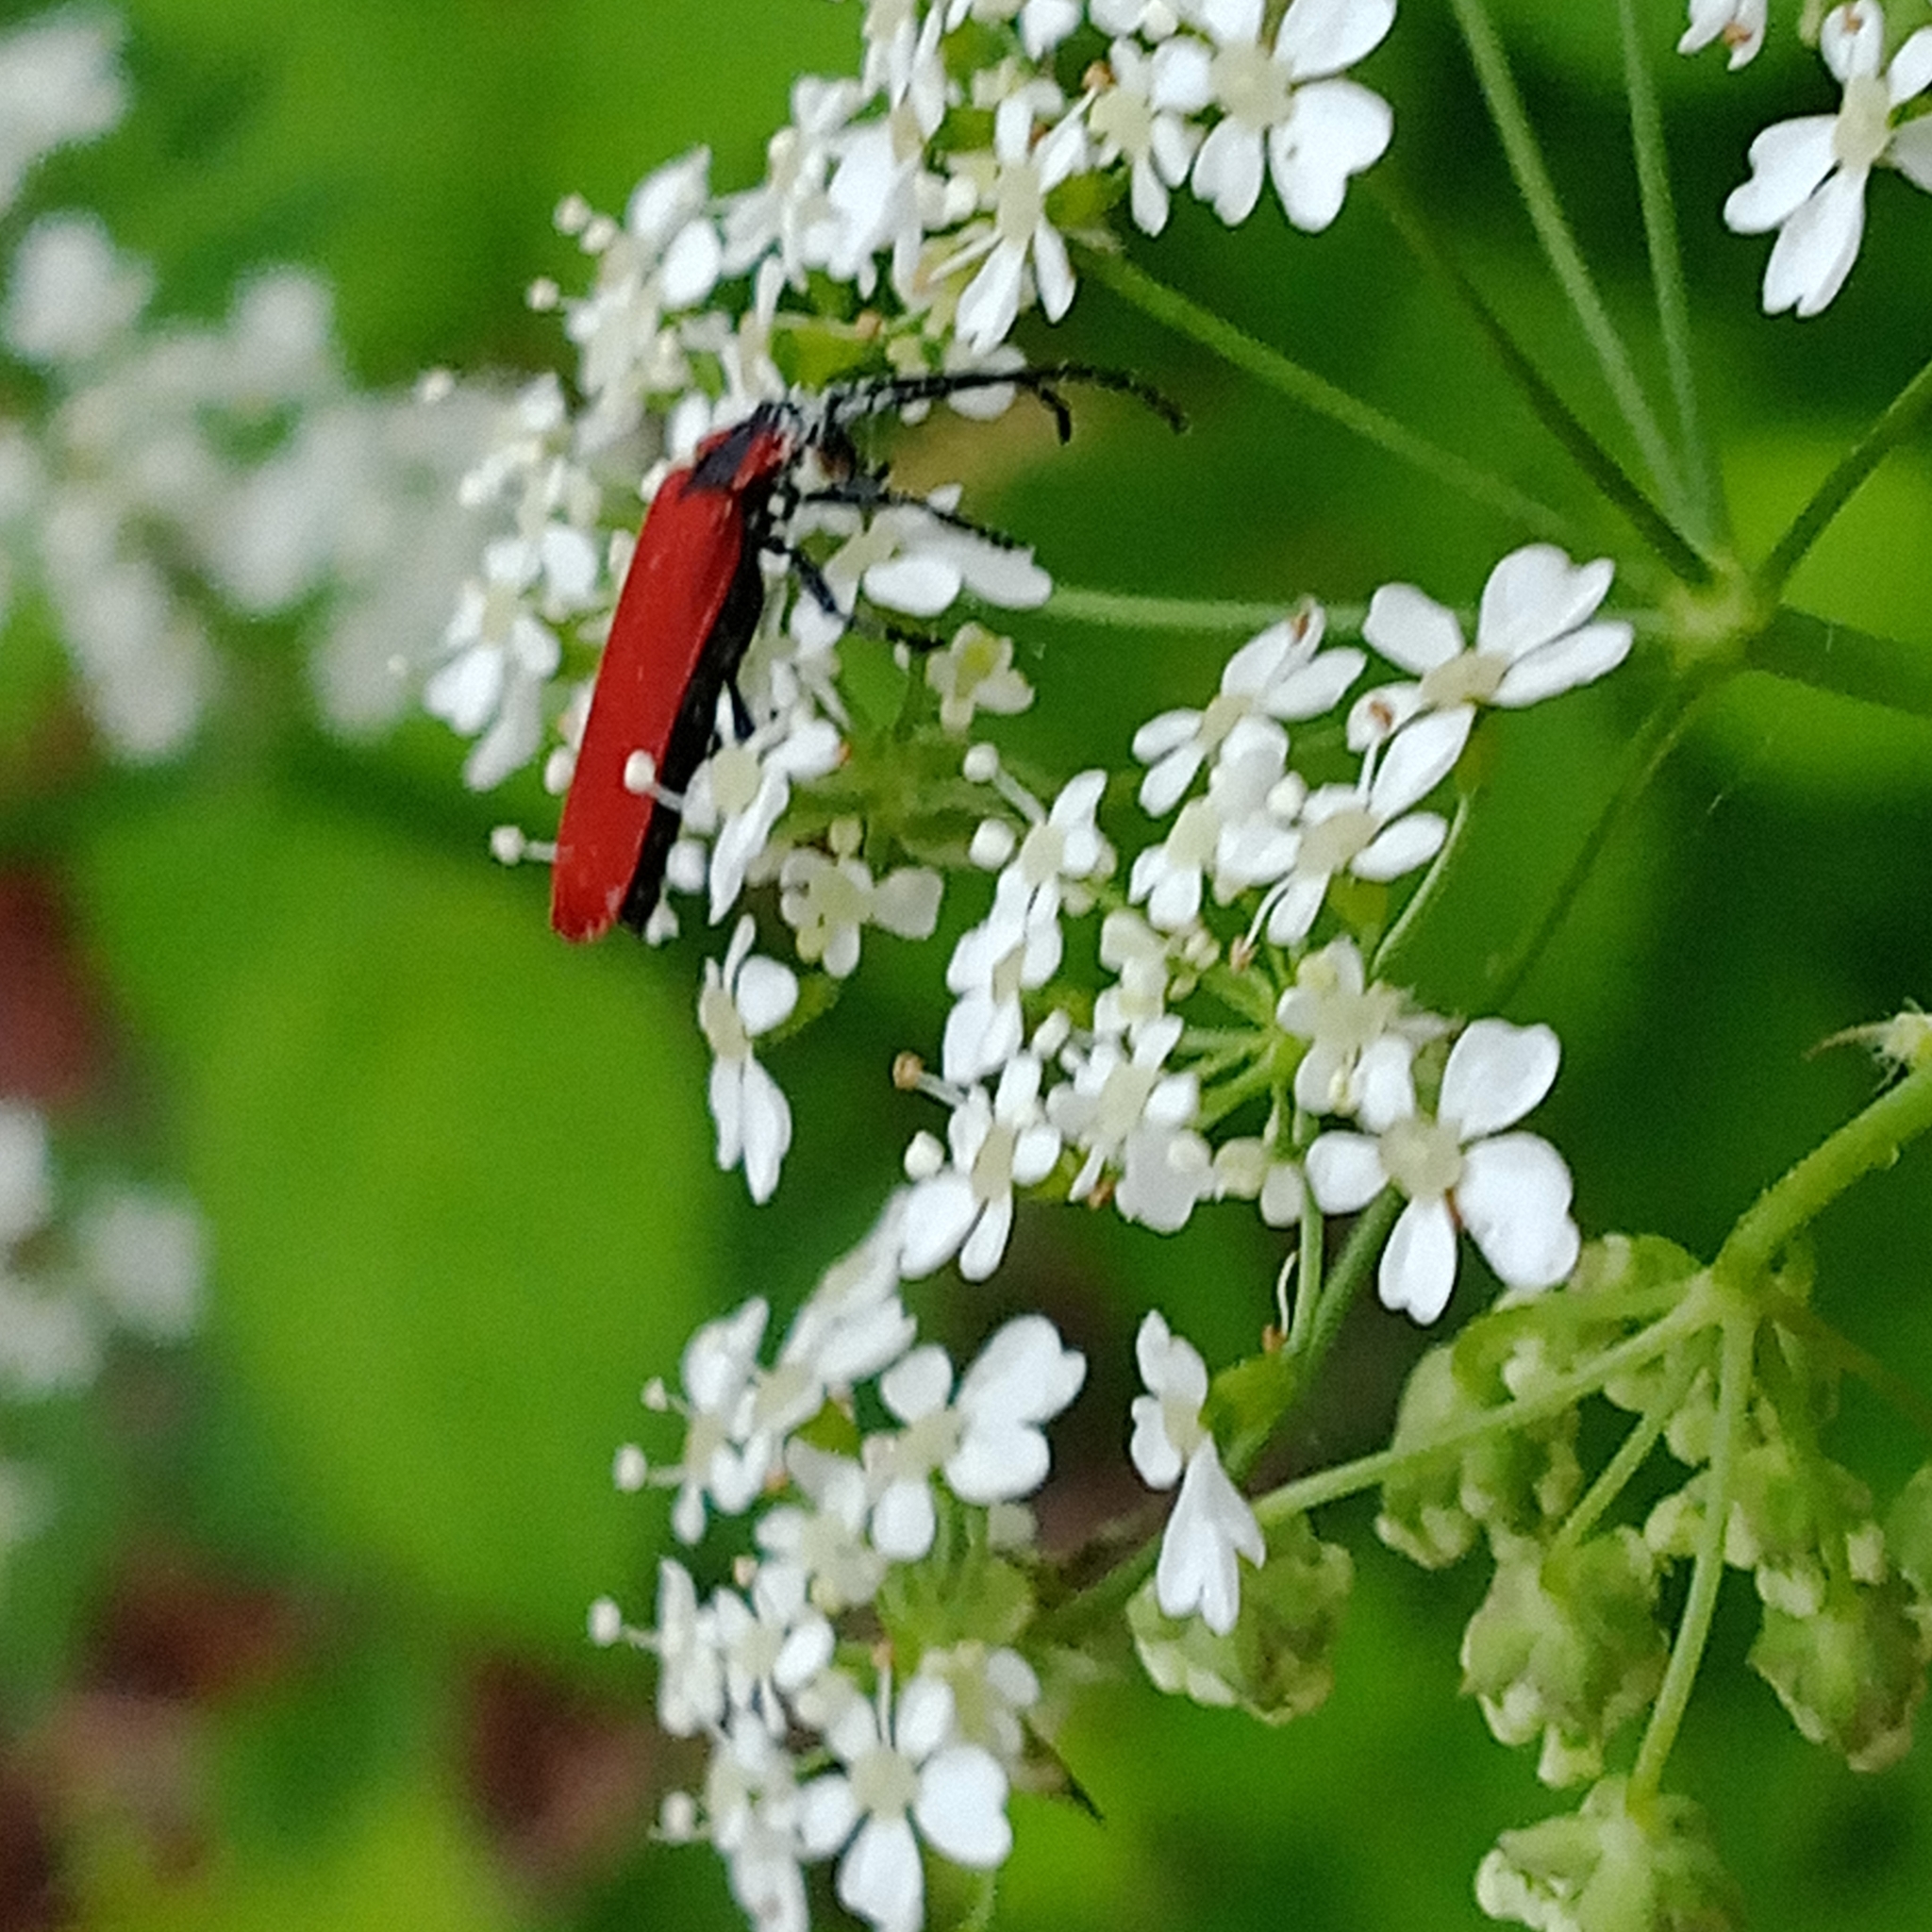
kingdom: Animalia
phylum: Arthropoda
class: Insecta
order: Coleoptera
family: Lycidae
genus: Lygistopterus
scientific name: Lygistopterus sanguineus
